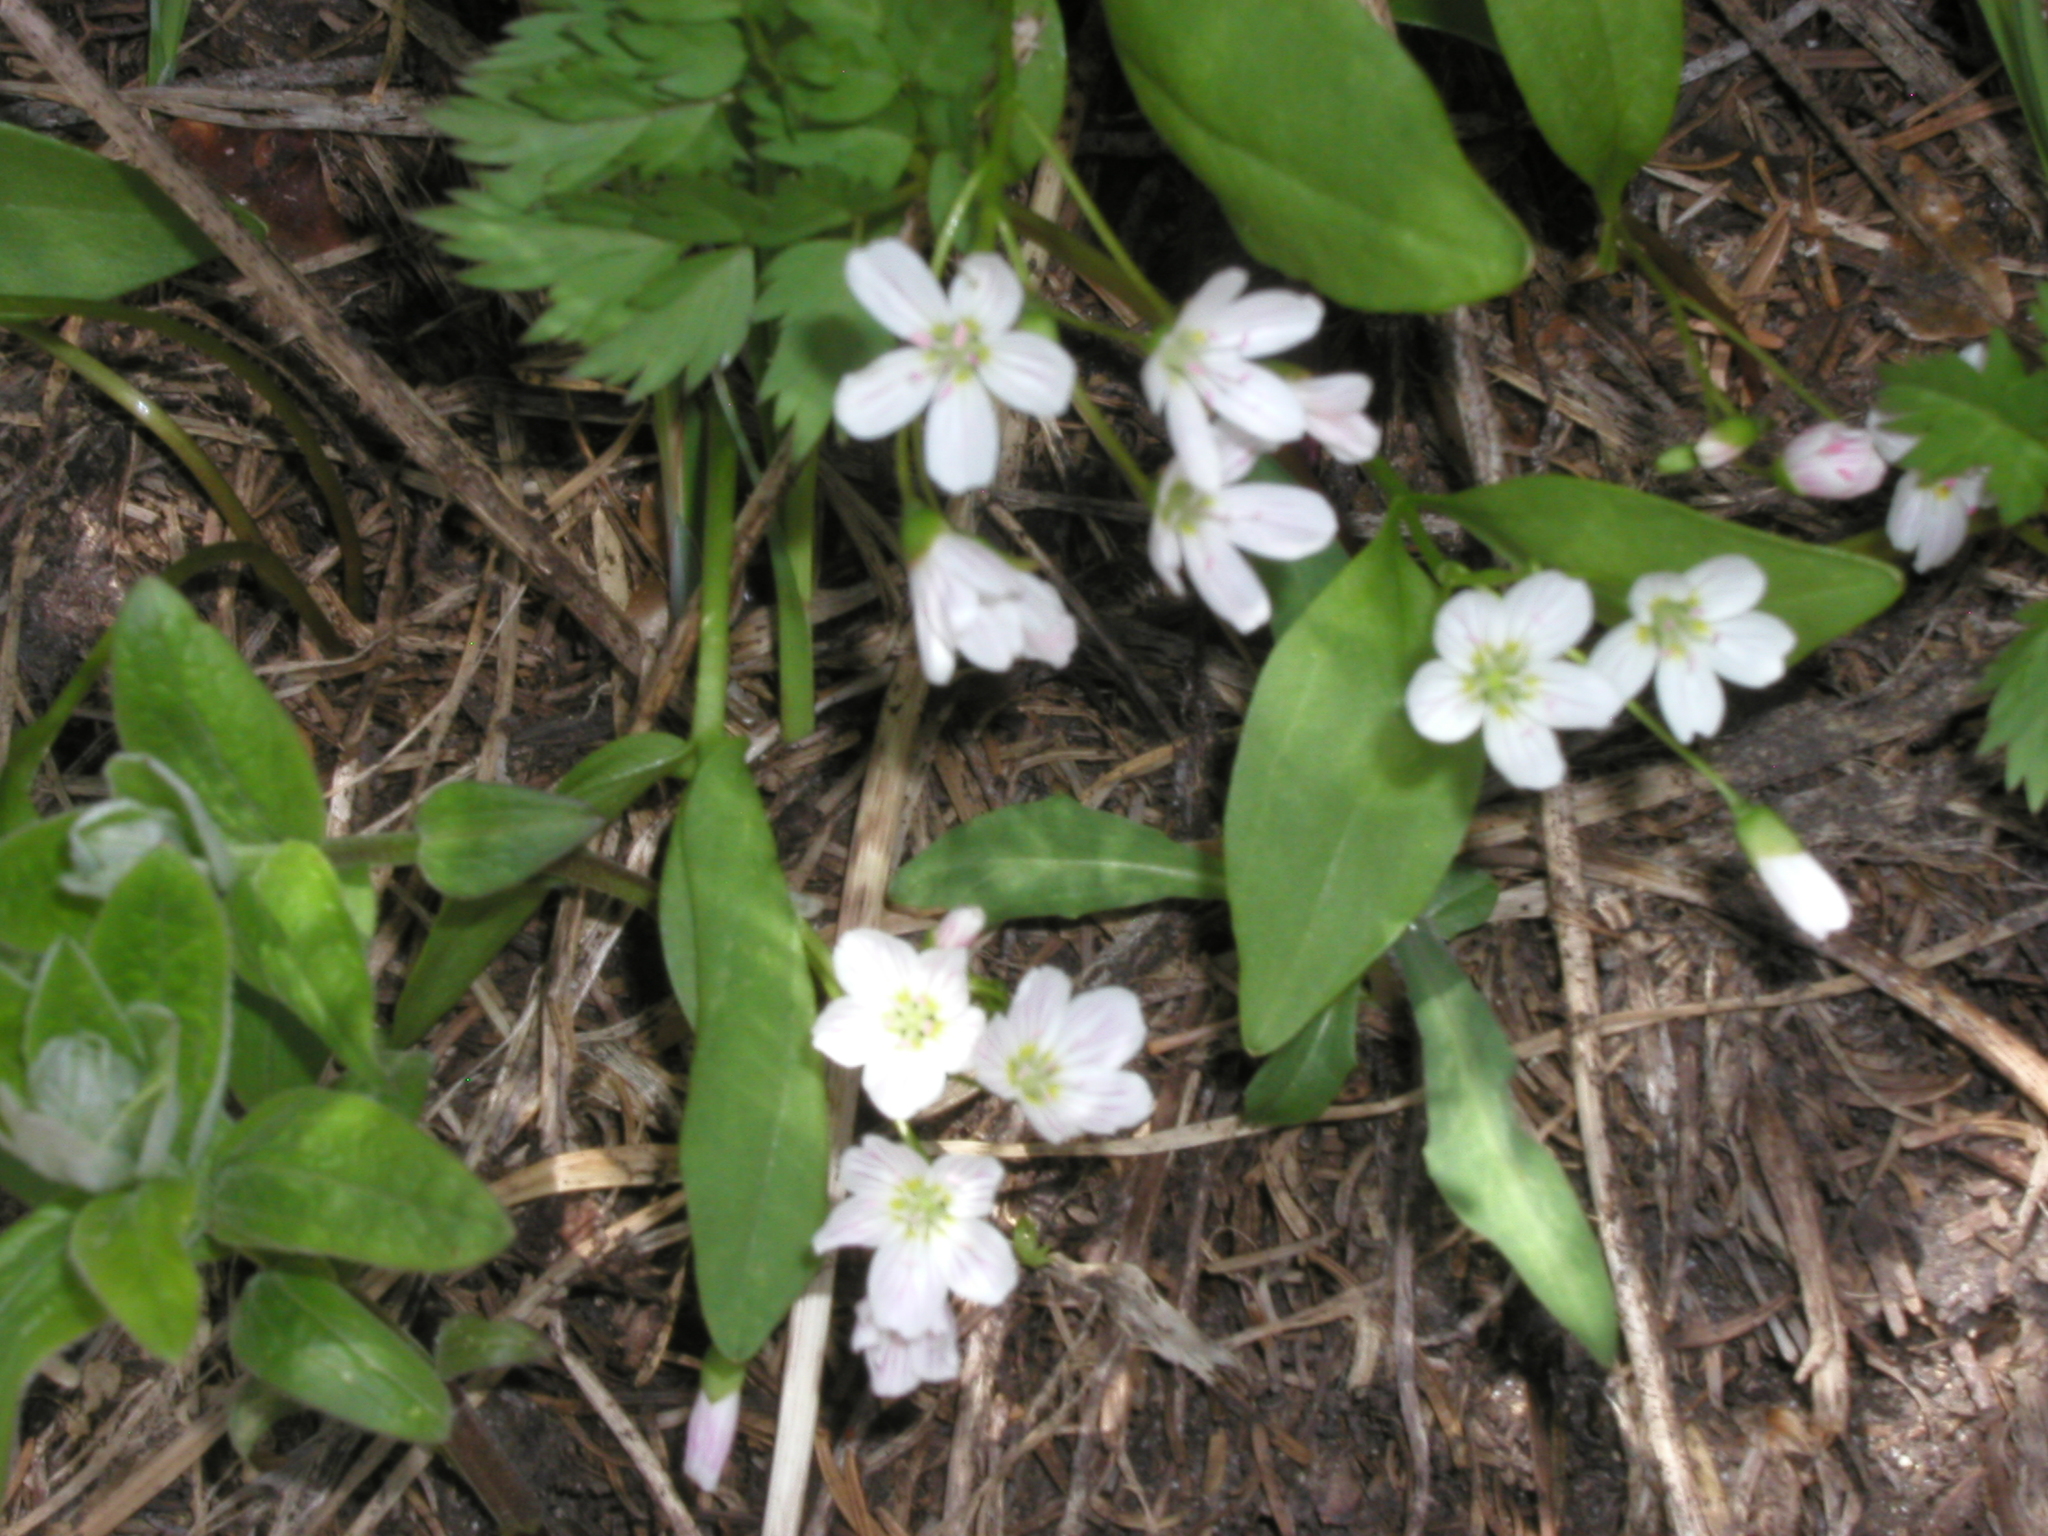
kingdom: Plantae
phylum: Tracheophyta
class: Magnoliopsida
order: Caryophyllales
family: Montiaceae
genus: Claytonia
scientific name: Claytonia lanceolata
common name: Western spring-beauty
